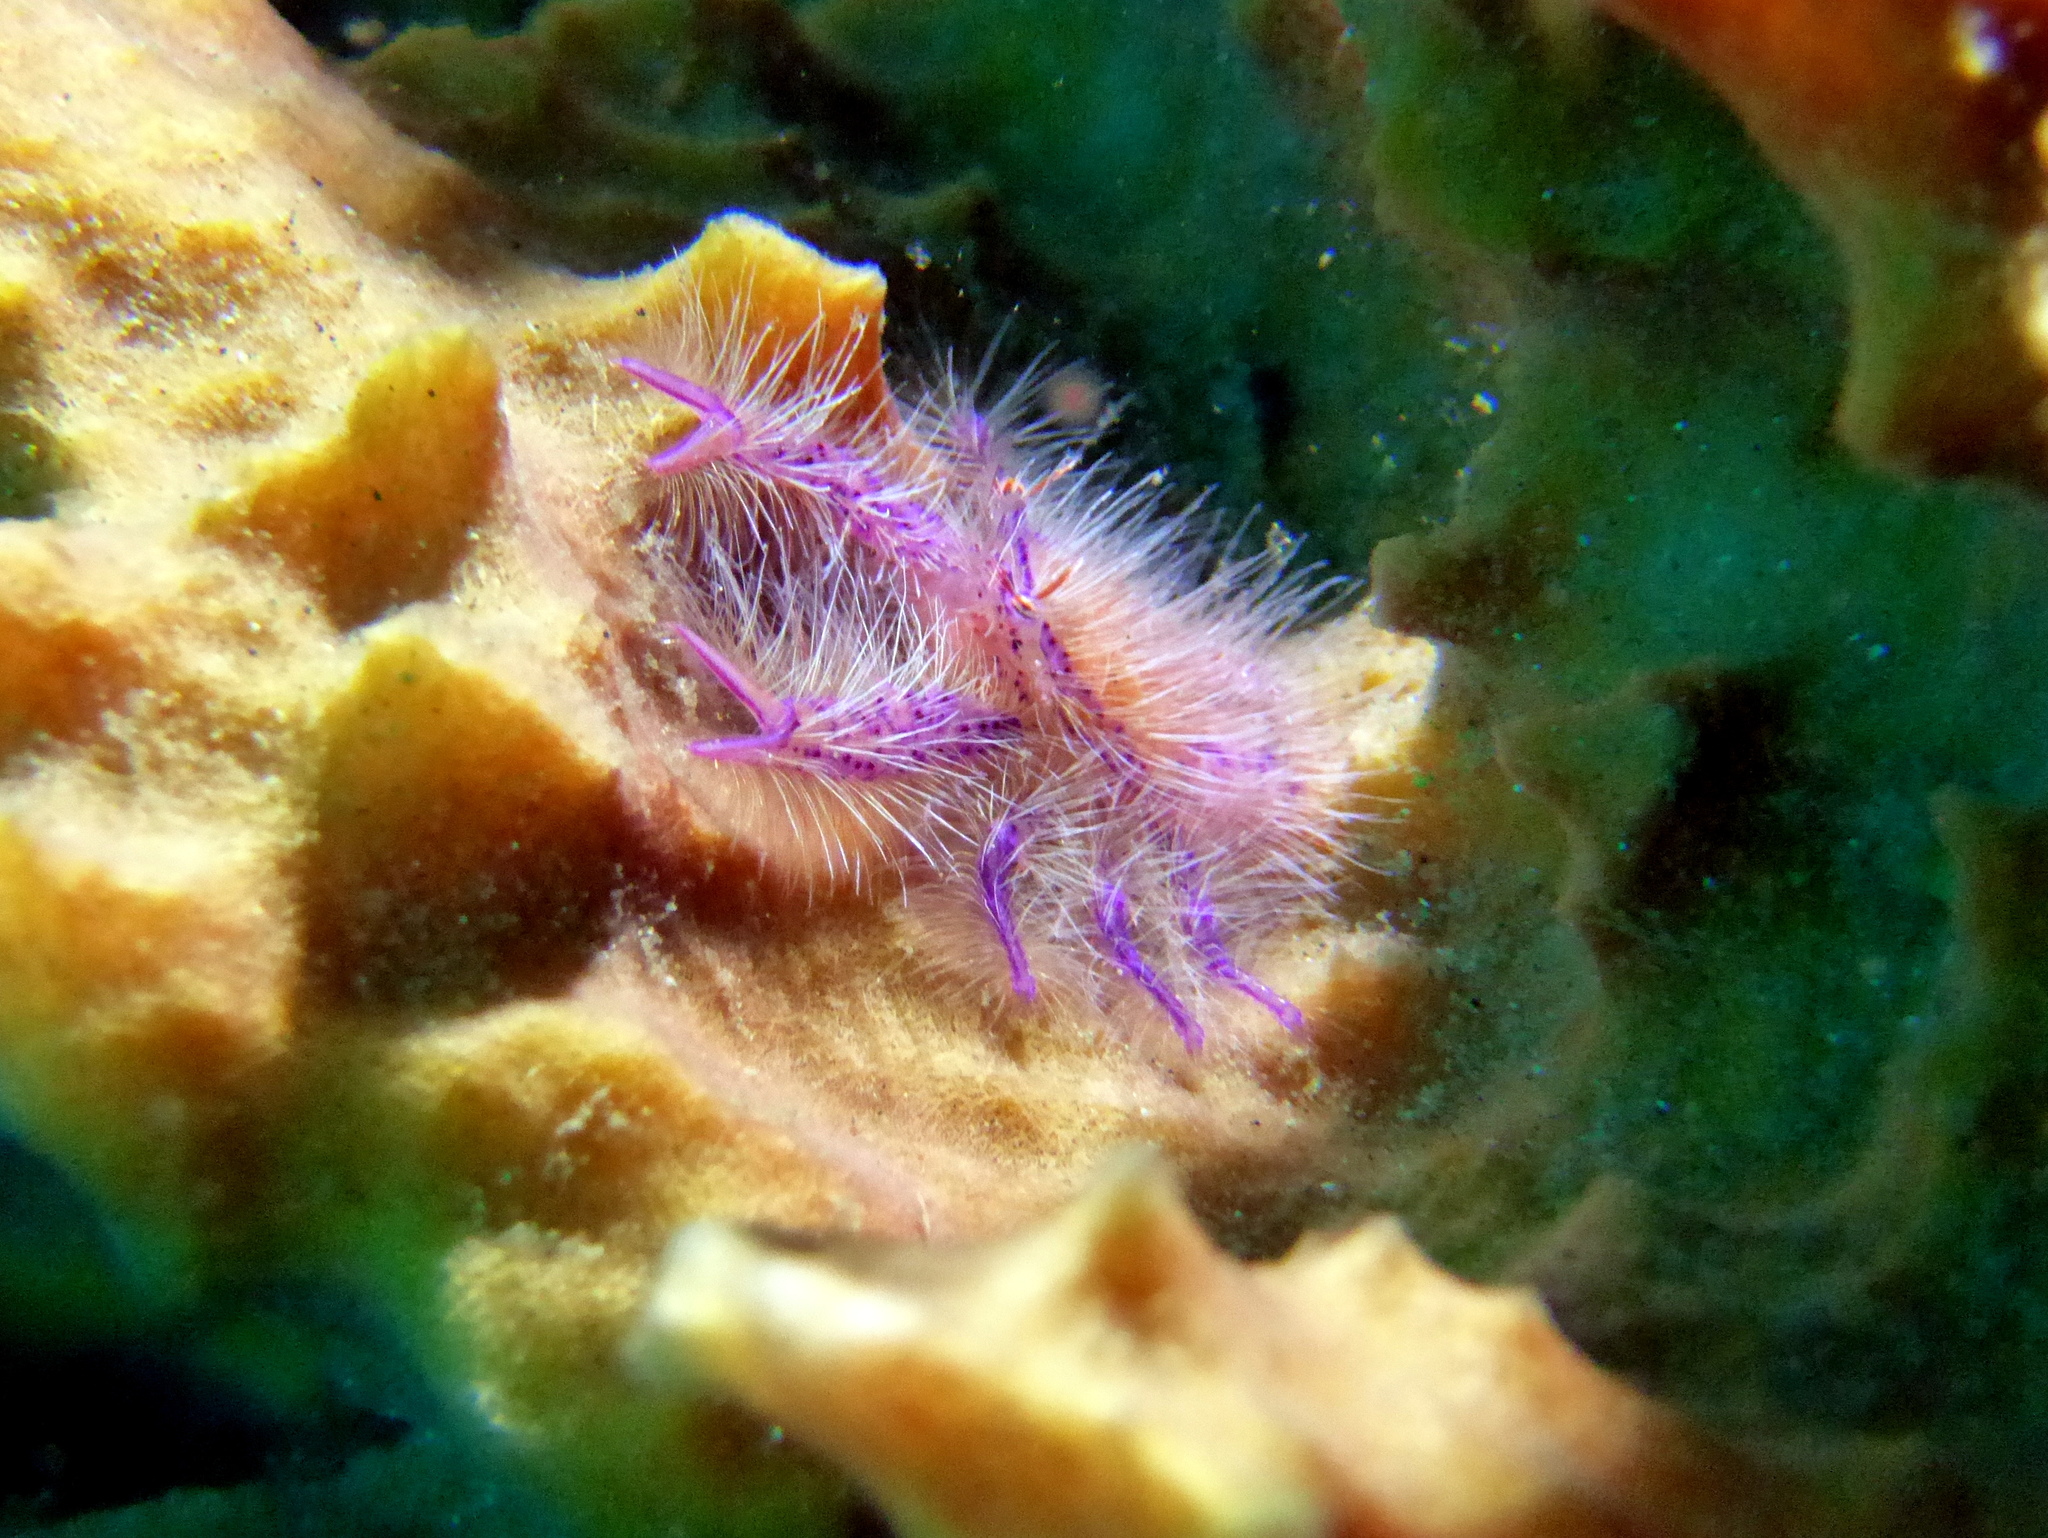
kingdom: Animalia
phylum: Arthropoda
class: Malacostraca
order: Decapoda
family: Galatheidae
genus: Lauriea
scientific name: Lauriea siagiani
